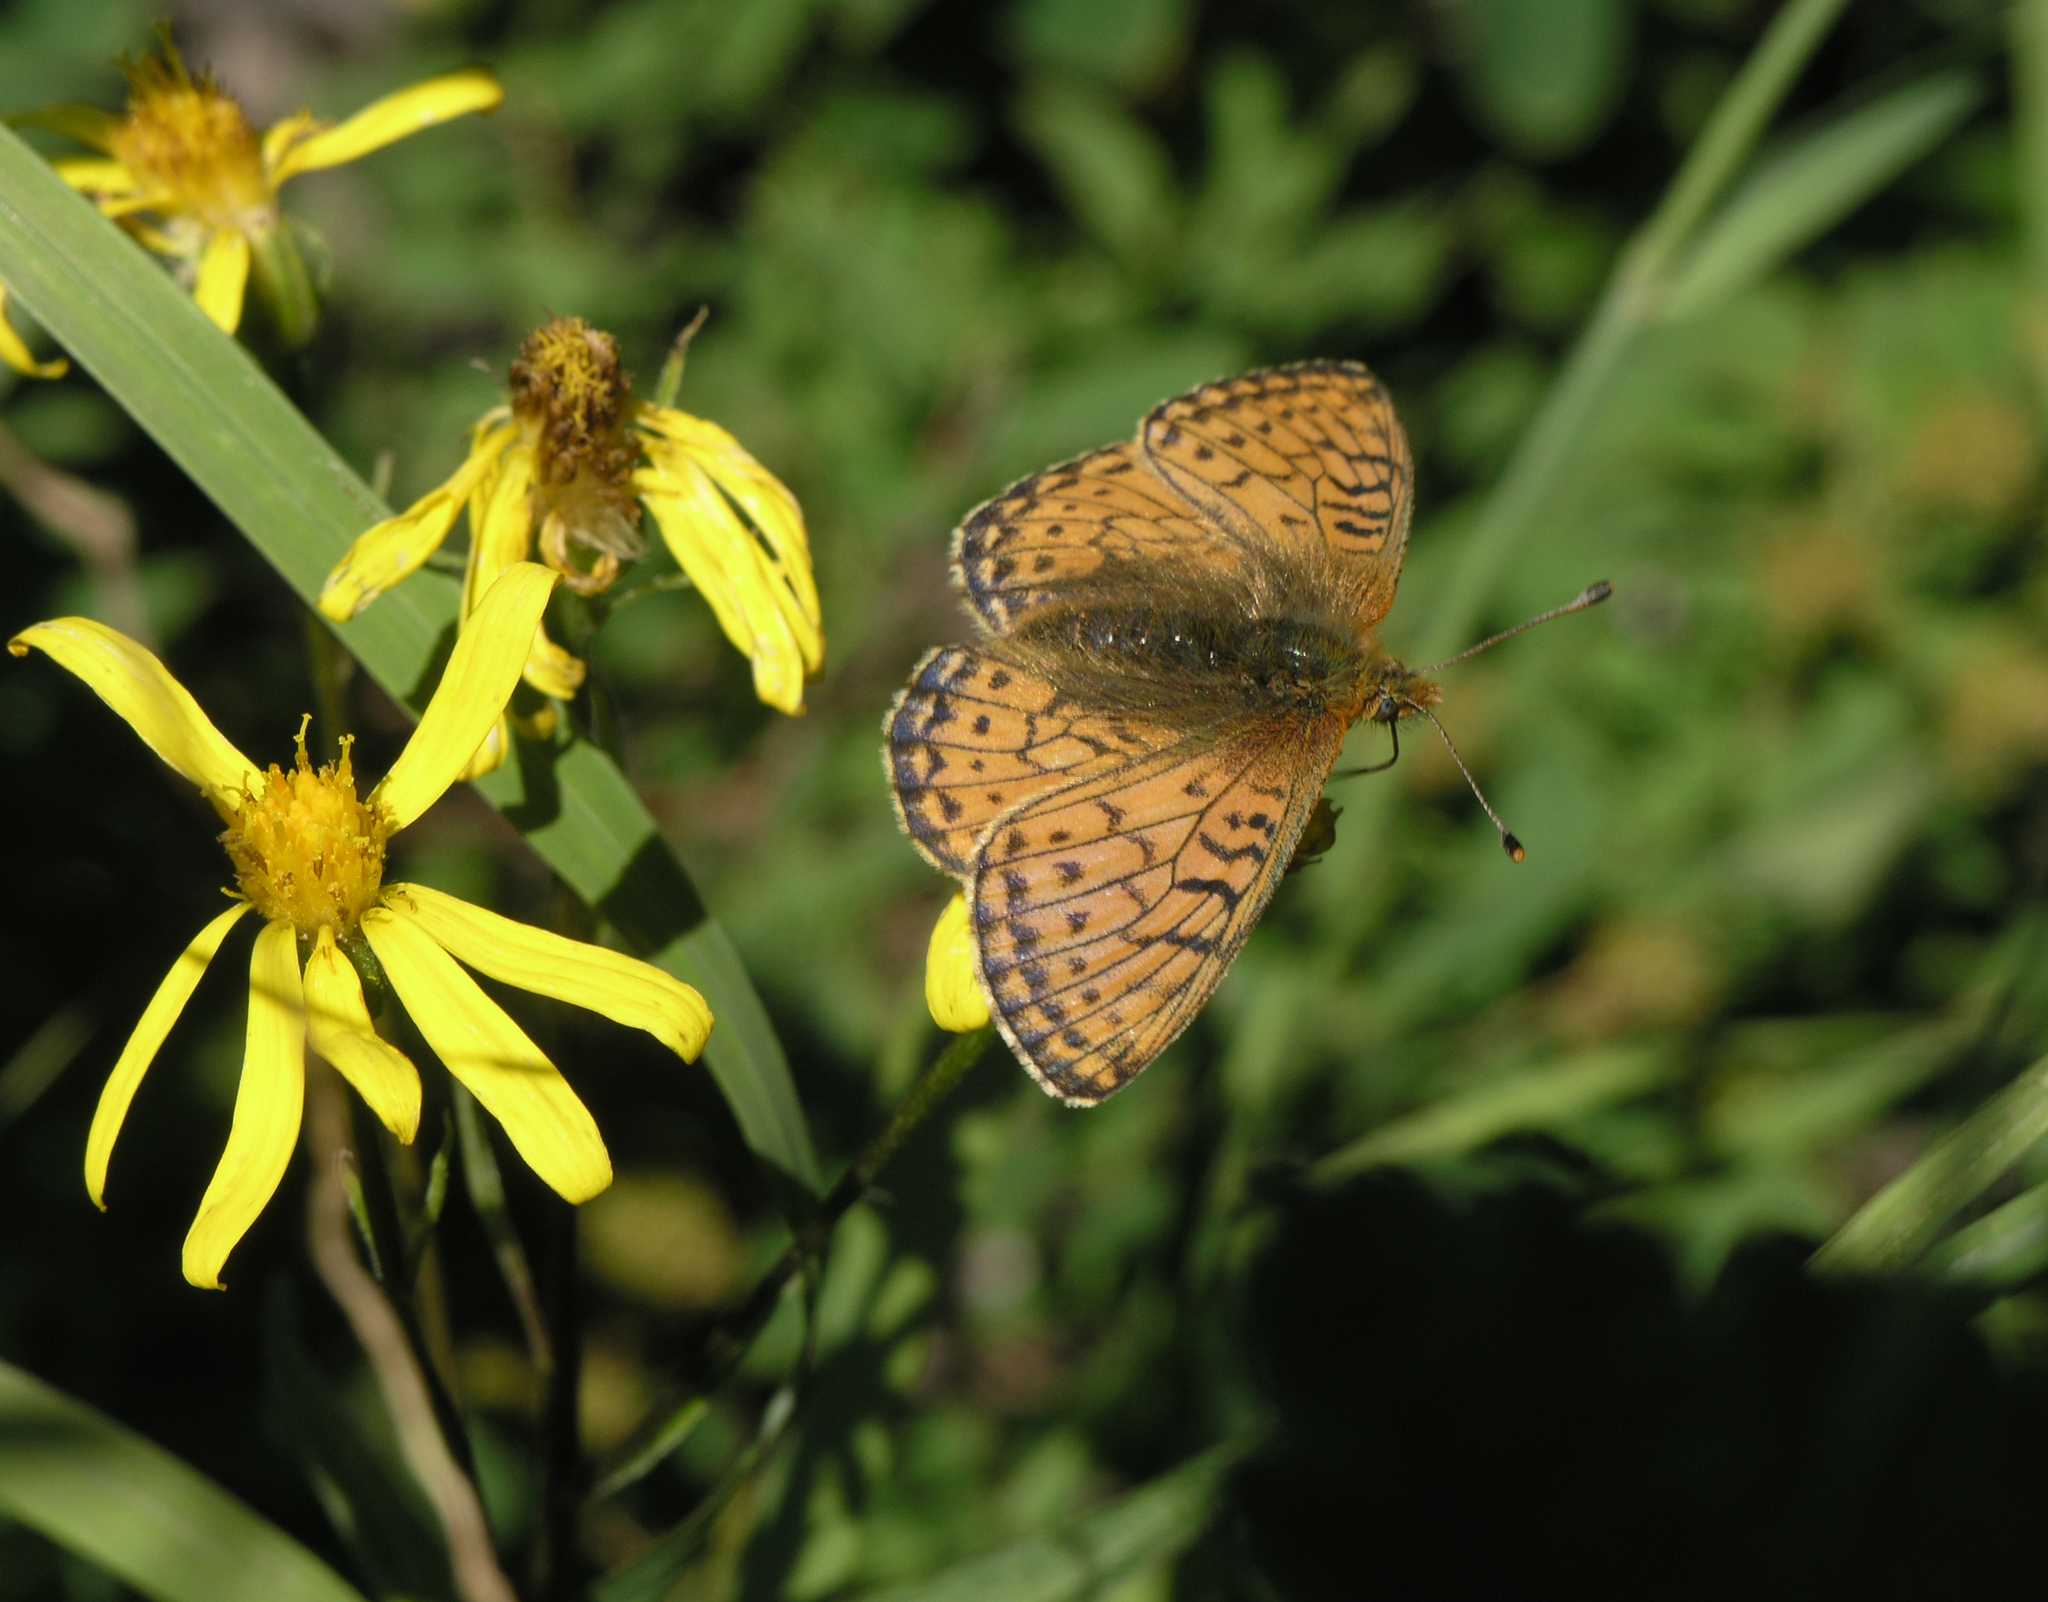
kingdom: Animalia
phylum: Arthropoda
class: Insecta
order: Lepidoptera
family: Nymphalidae
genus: Boloria
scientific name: Boloria
